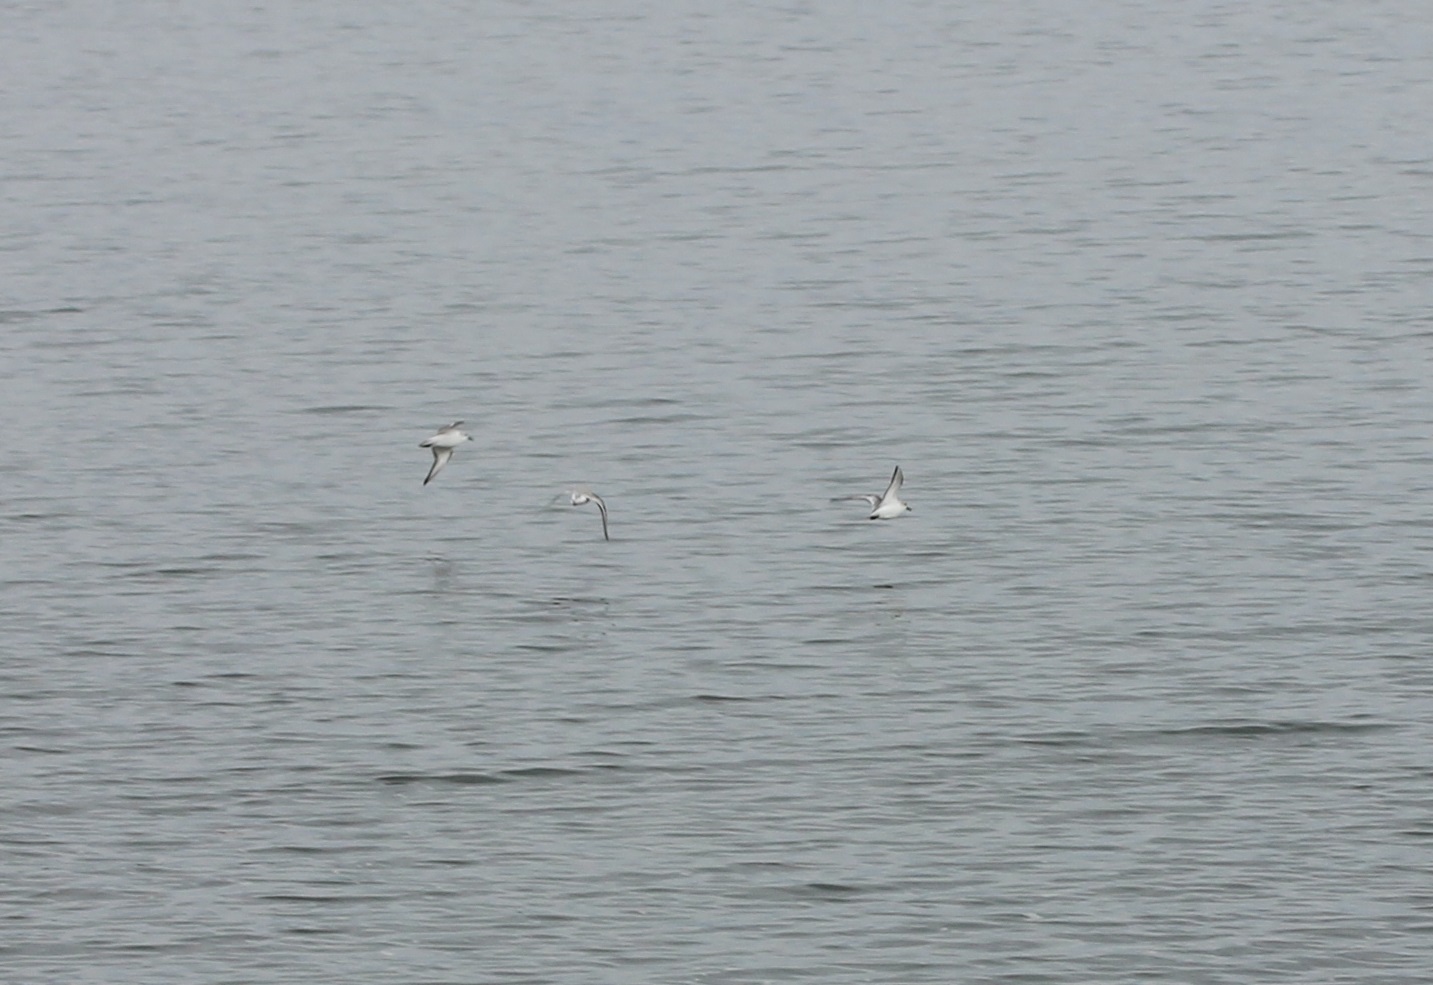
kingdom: Animalia
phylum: Chordata
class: Aves
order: Charadriiformes
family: Scolopacidae
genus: Calidris
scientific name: Calidris alba
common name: Sanderling
